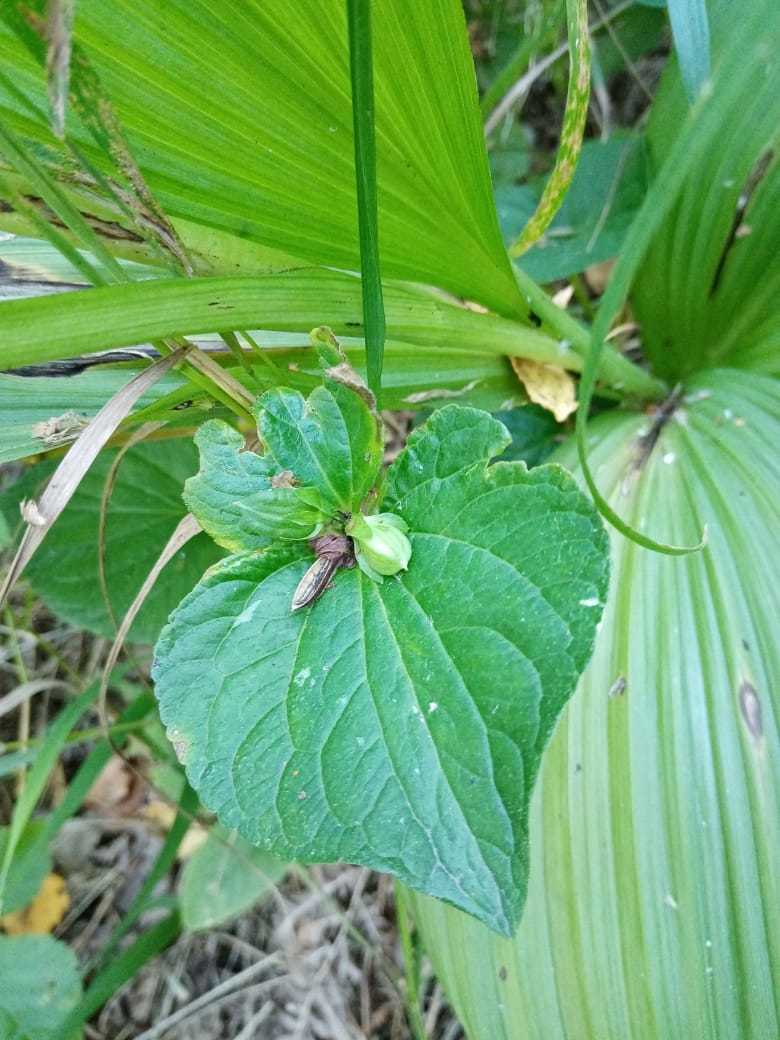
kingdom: Plantae
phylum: Tracheophyta
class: Magnoliopsida
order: Malpighiales
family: Violaceae
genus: Viola
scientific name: Viola mirabilis
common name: Wonder violet
